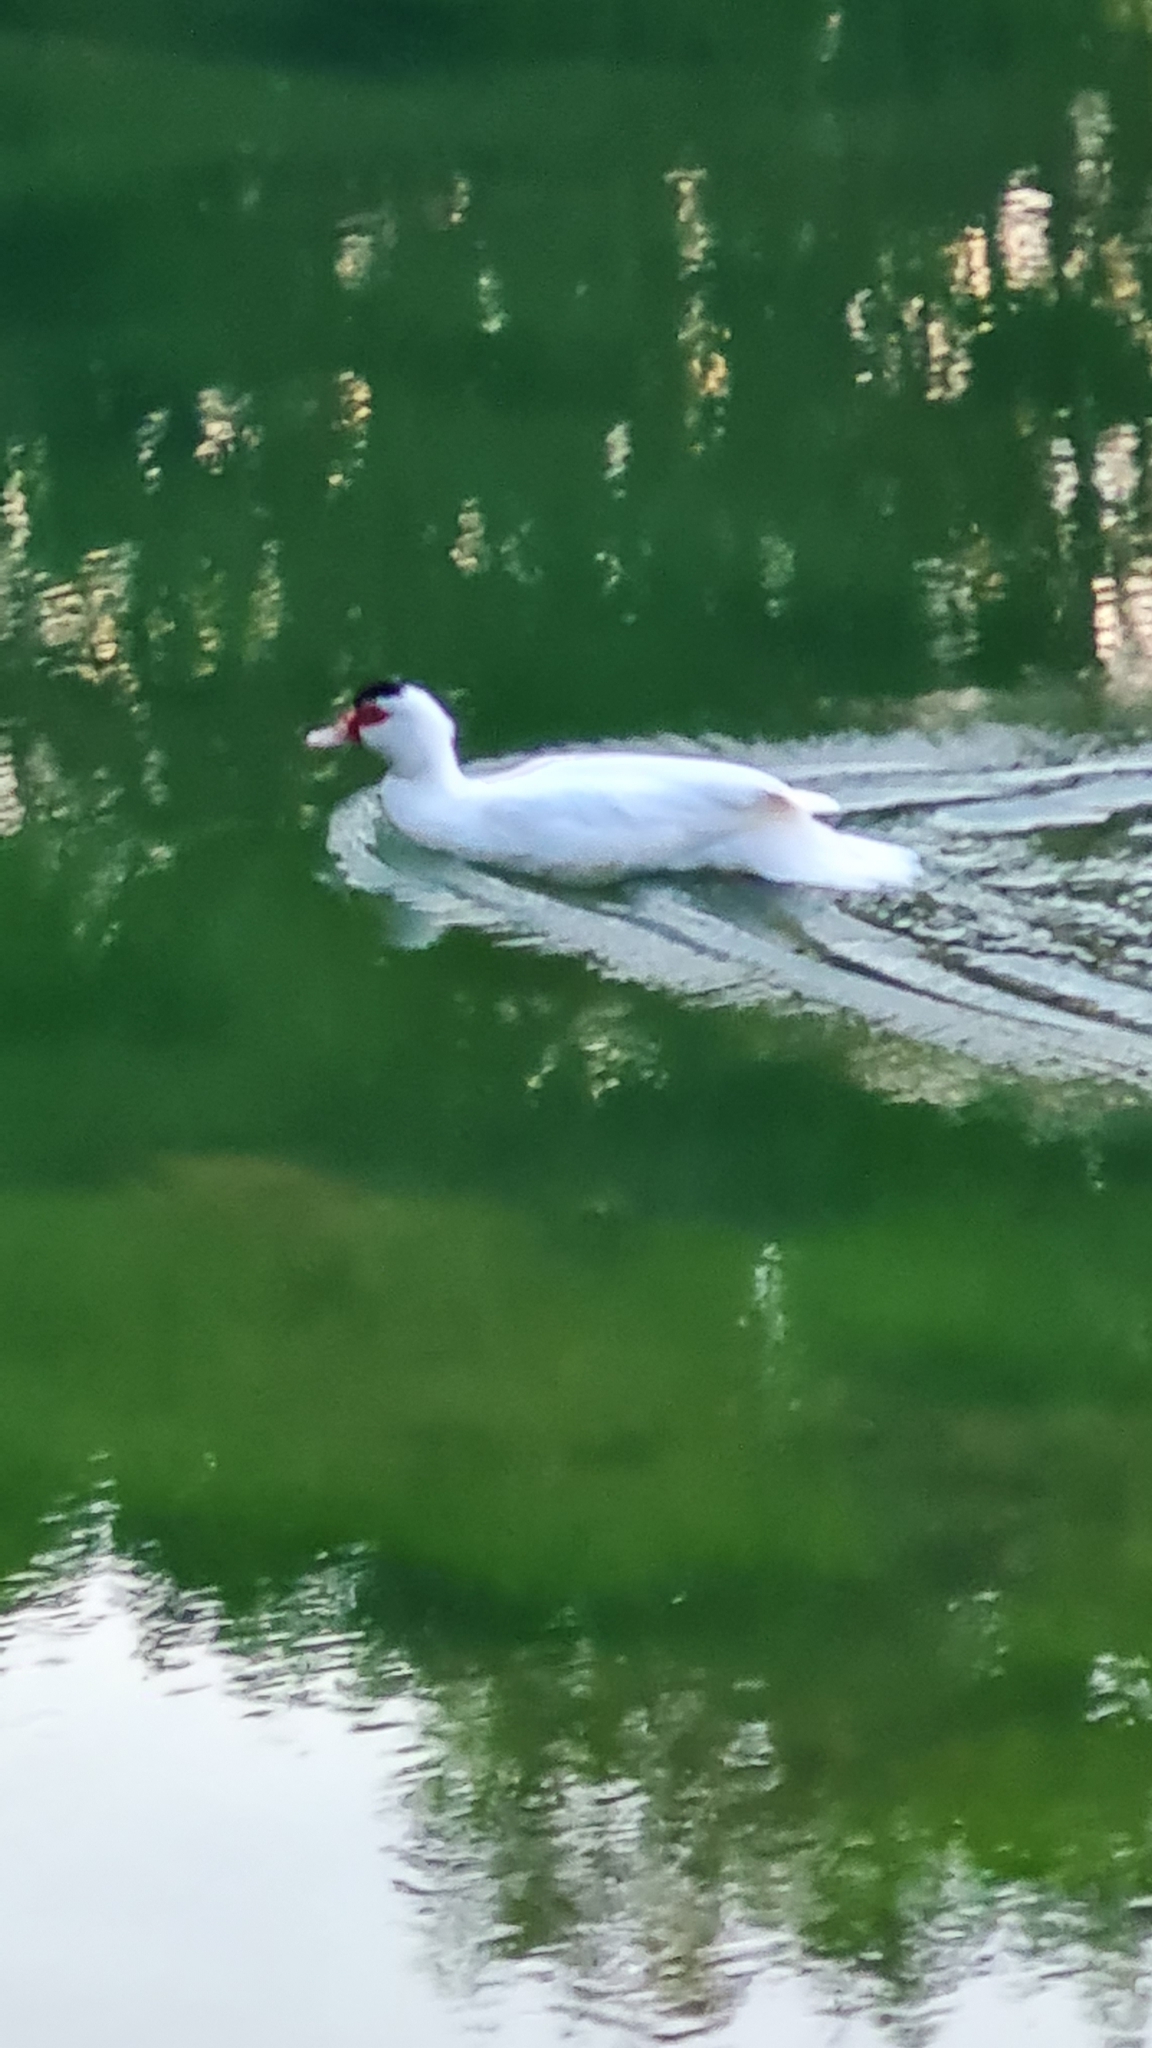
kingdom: Animalia
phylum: Chordata
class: Aves
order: Anseriformes
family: Anatidae
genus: Cairina
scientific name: Cairina moschata
